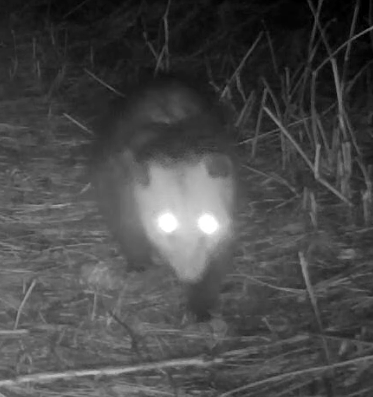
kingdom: Animalia
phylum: Chordata
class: Mammalia
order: Didelphimorphia
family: Didelphidae
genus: Didelphis
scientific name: Didelphis virginiana
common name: Virginia opossum
